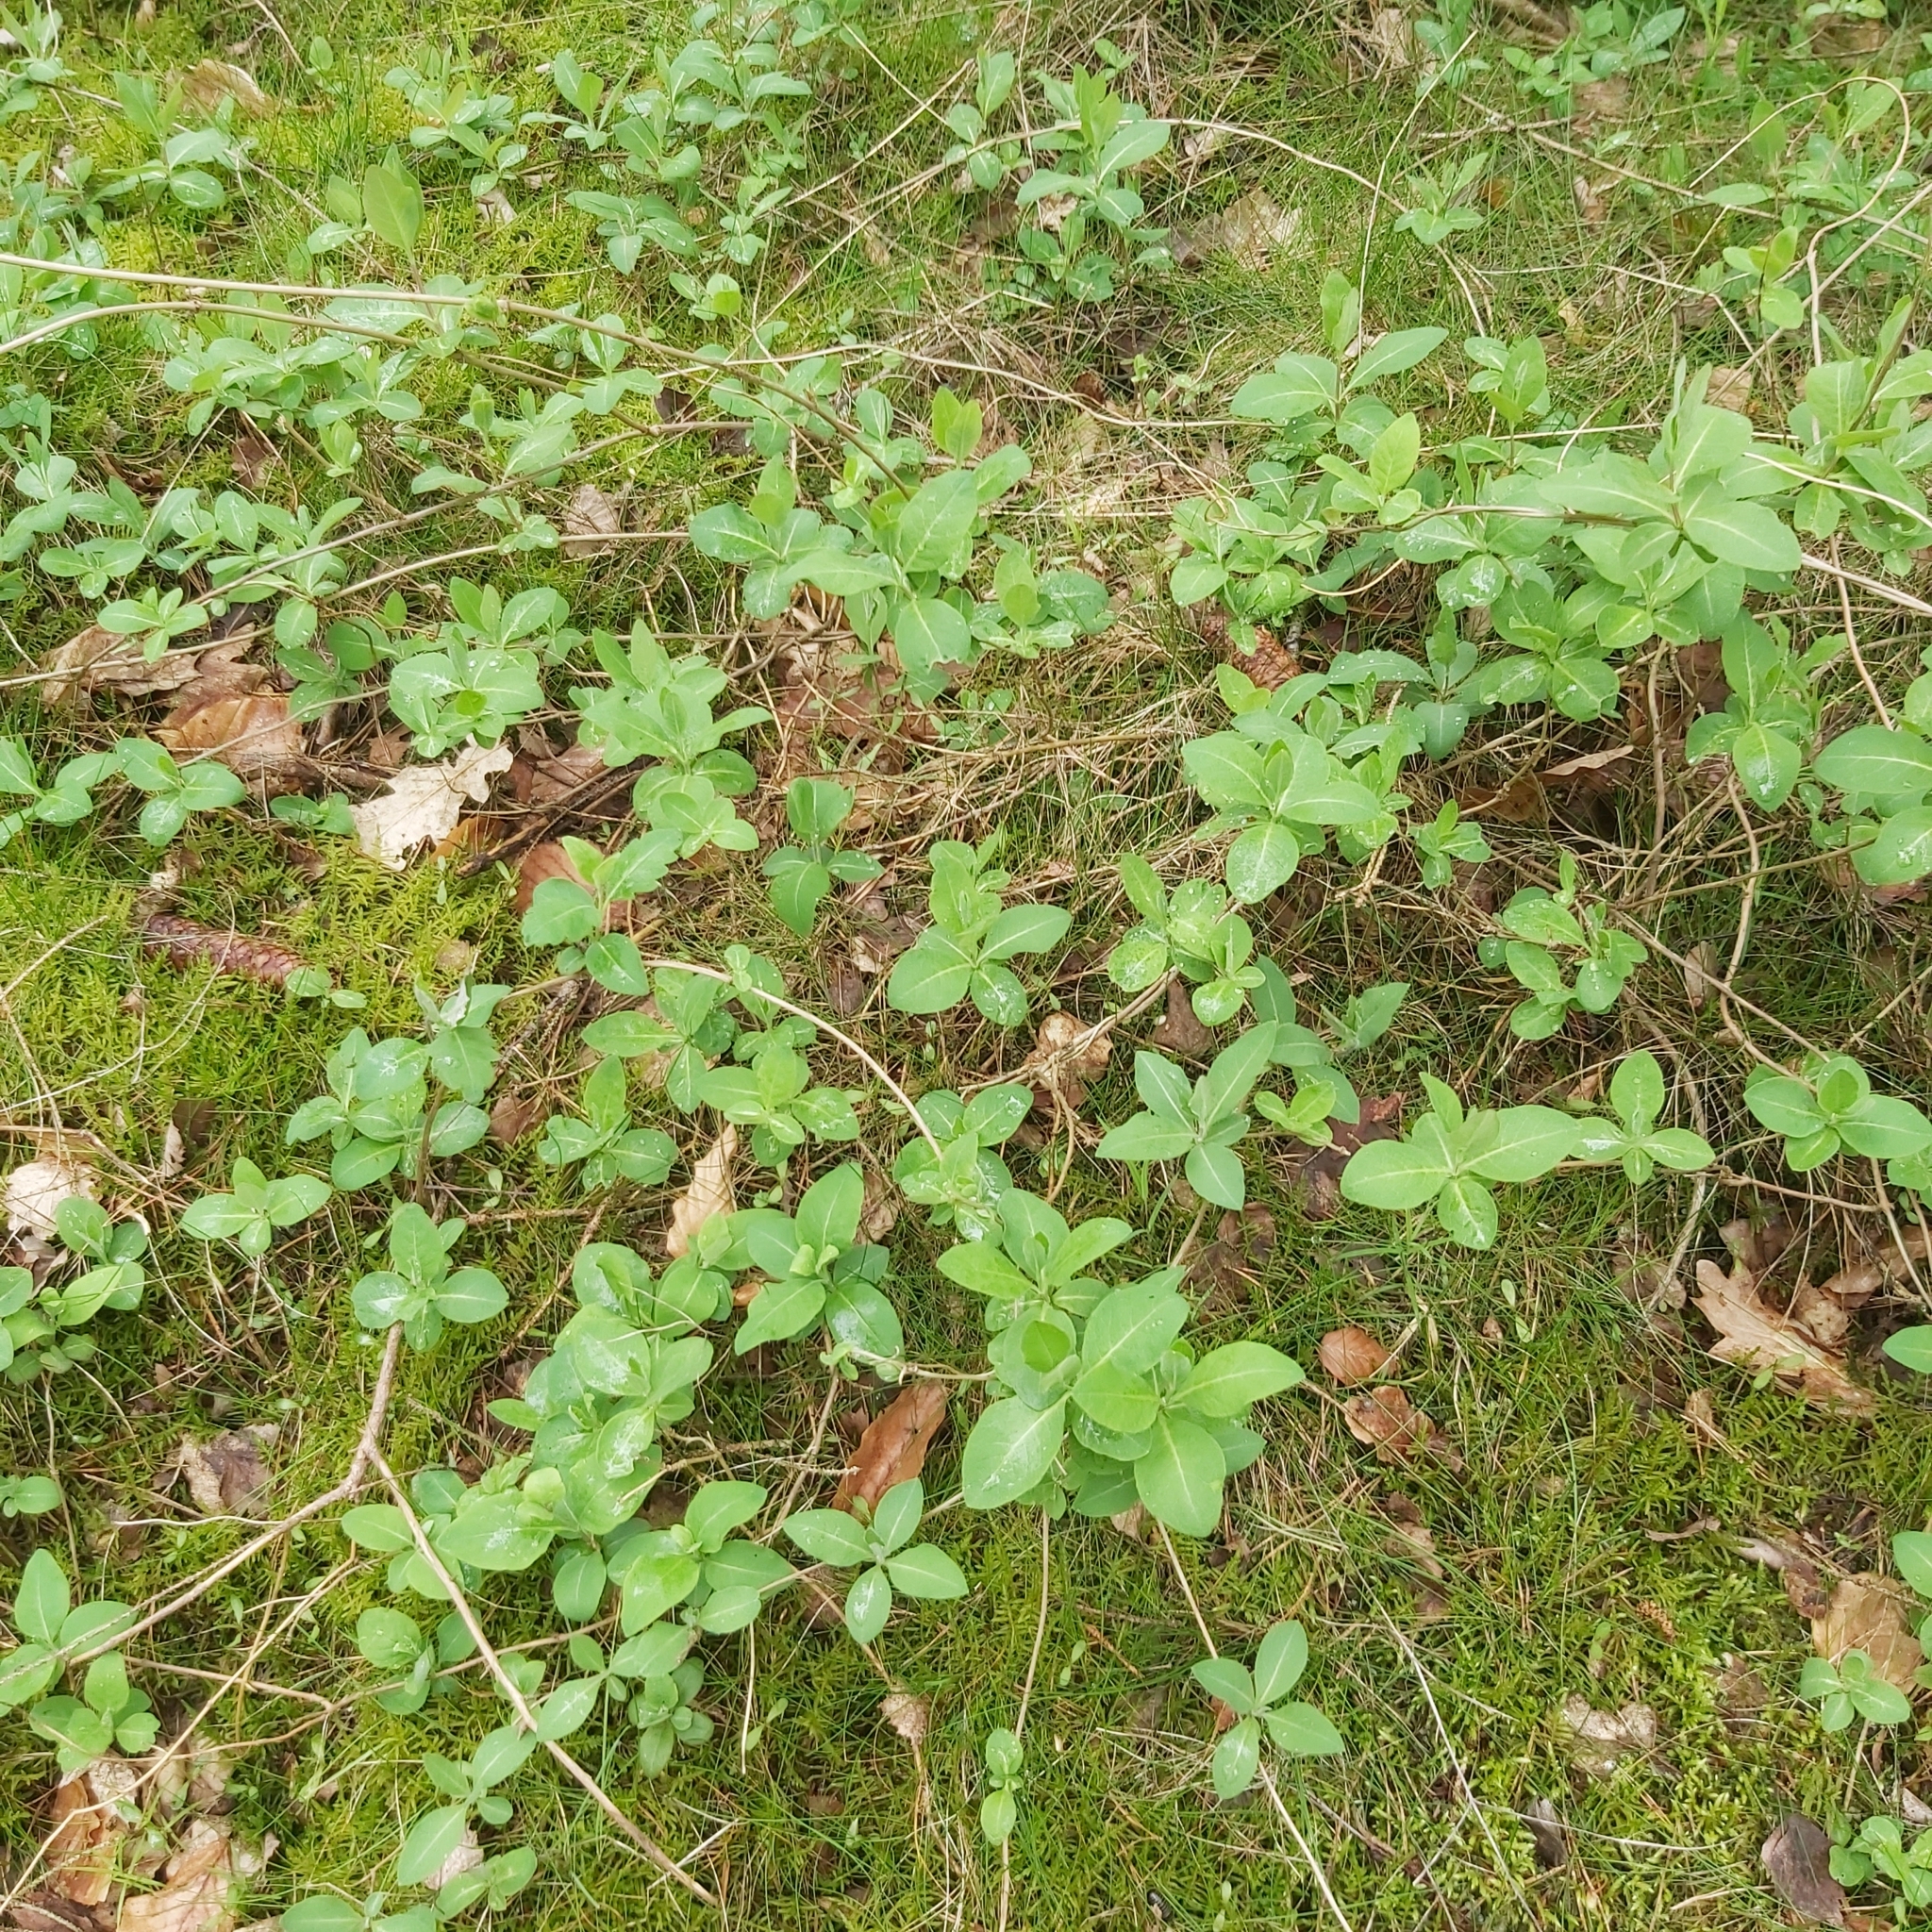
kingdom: Plantae
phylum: Tracheophyta
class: Magnoliopsida
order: Dipsacales
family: Caprifoliaceae
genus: Lonicera
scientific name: Lonicera periclymenum
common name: European honeysuckle
